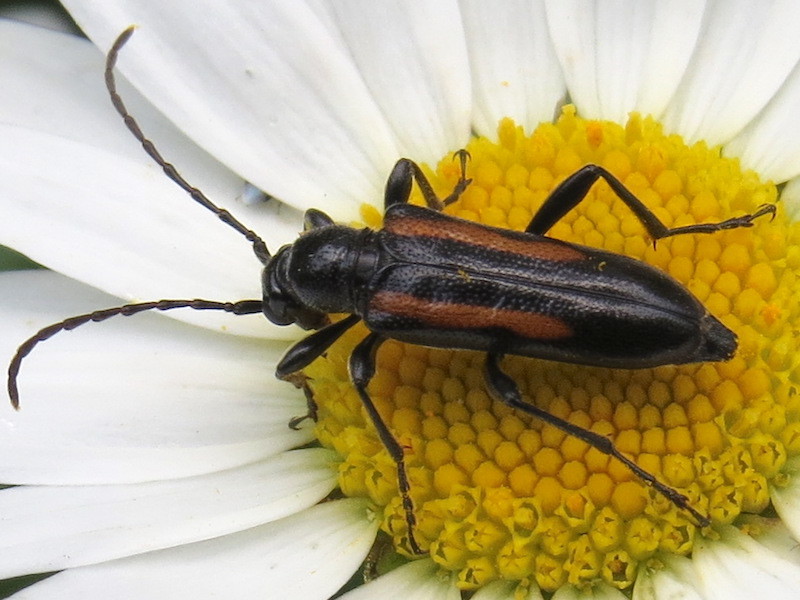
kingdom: Animalia
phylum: Arthropoda
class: Insecta
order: Coleoptera
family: Cerambycidae
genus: Strangalepta
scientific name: Strangalepta abbreviata
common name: Strangalepta flower longhorn beetle
